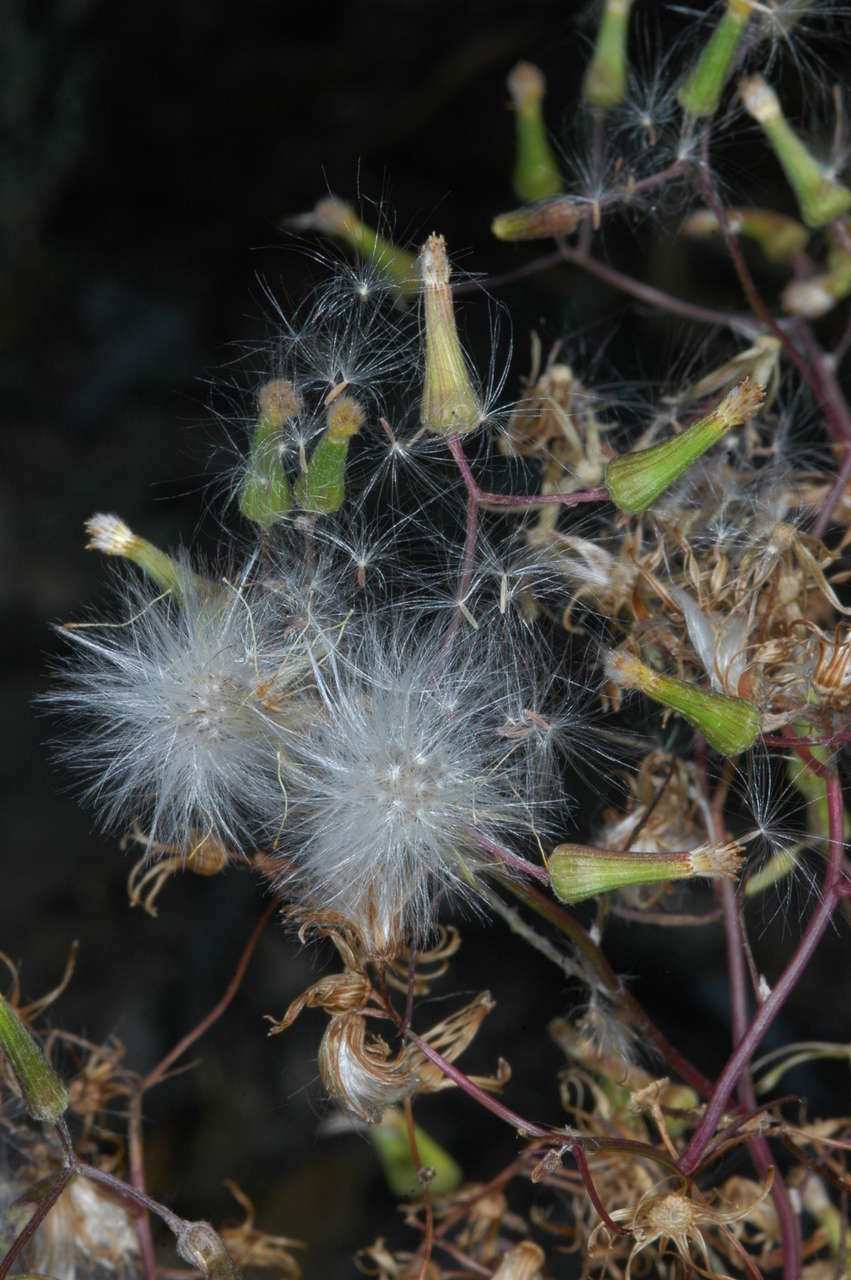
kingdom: Plantae
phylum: Tracheophyta
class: Magnoliopsida
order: Asterales
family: Asteraceae
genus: Senecio
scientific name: Senecio runcinifolius
